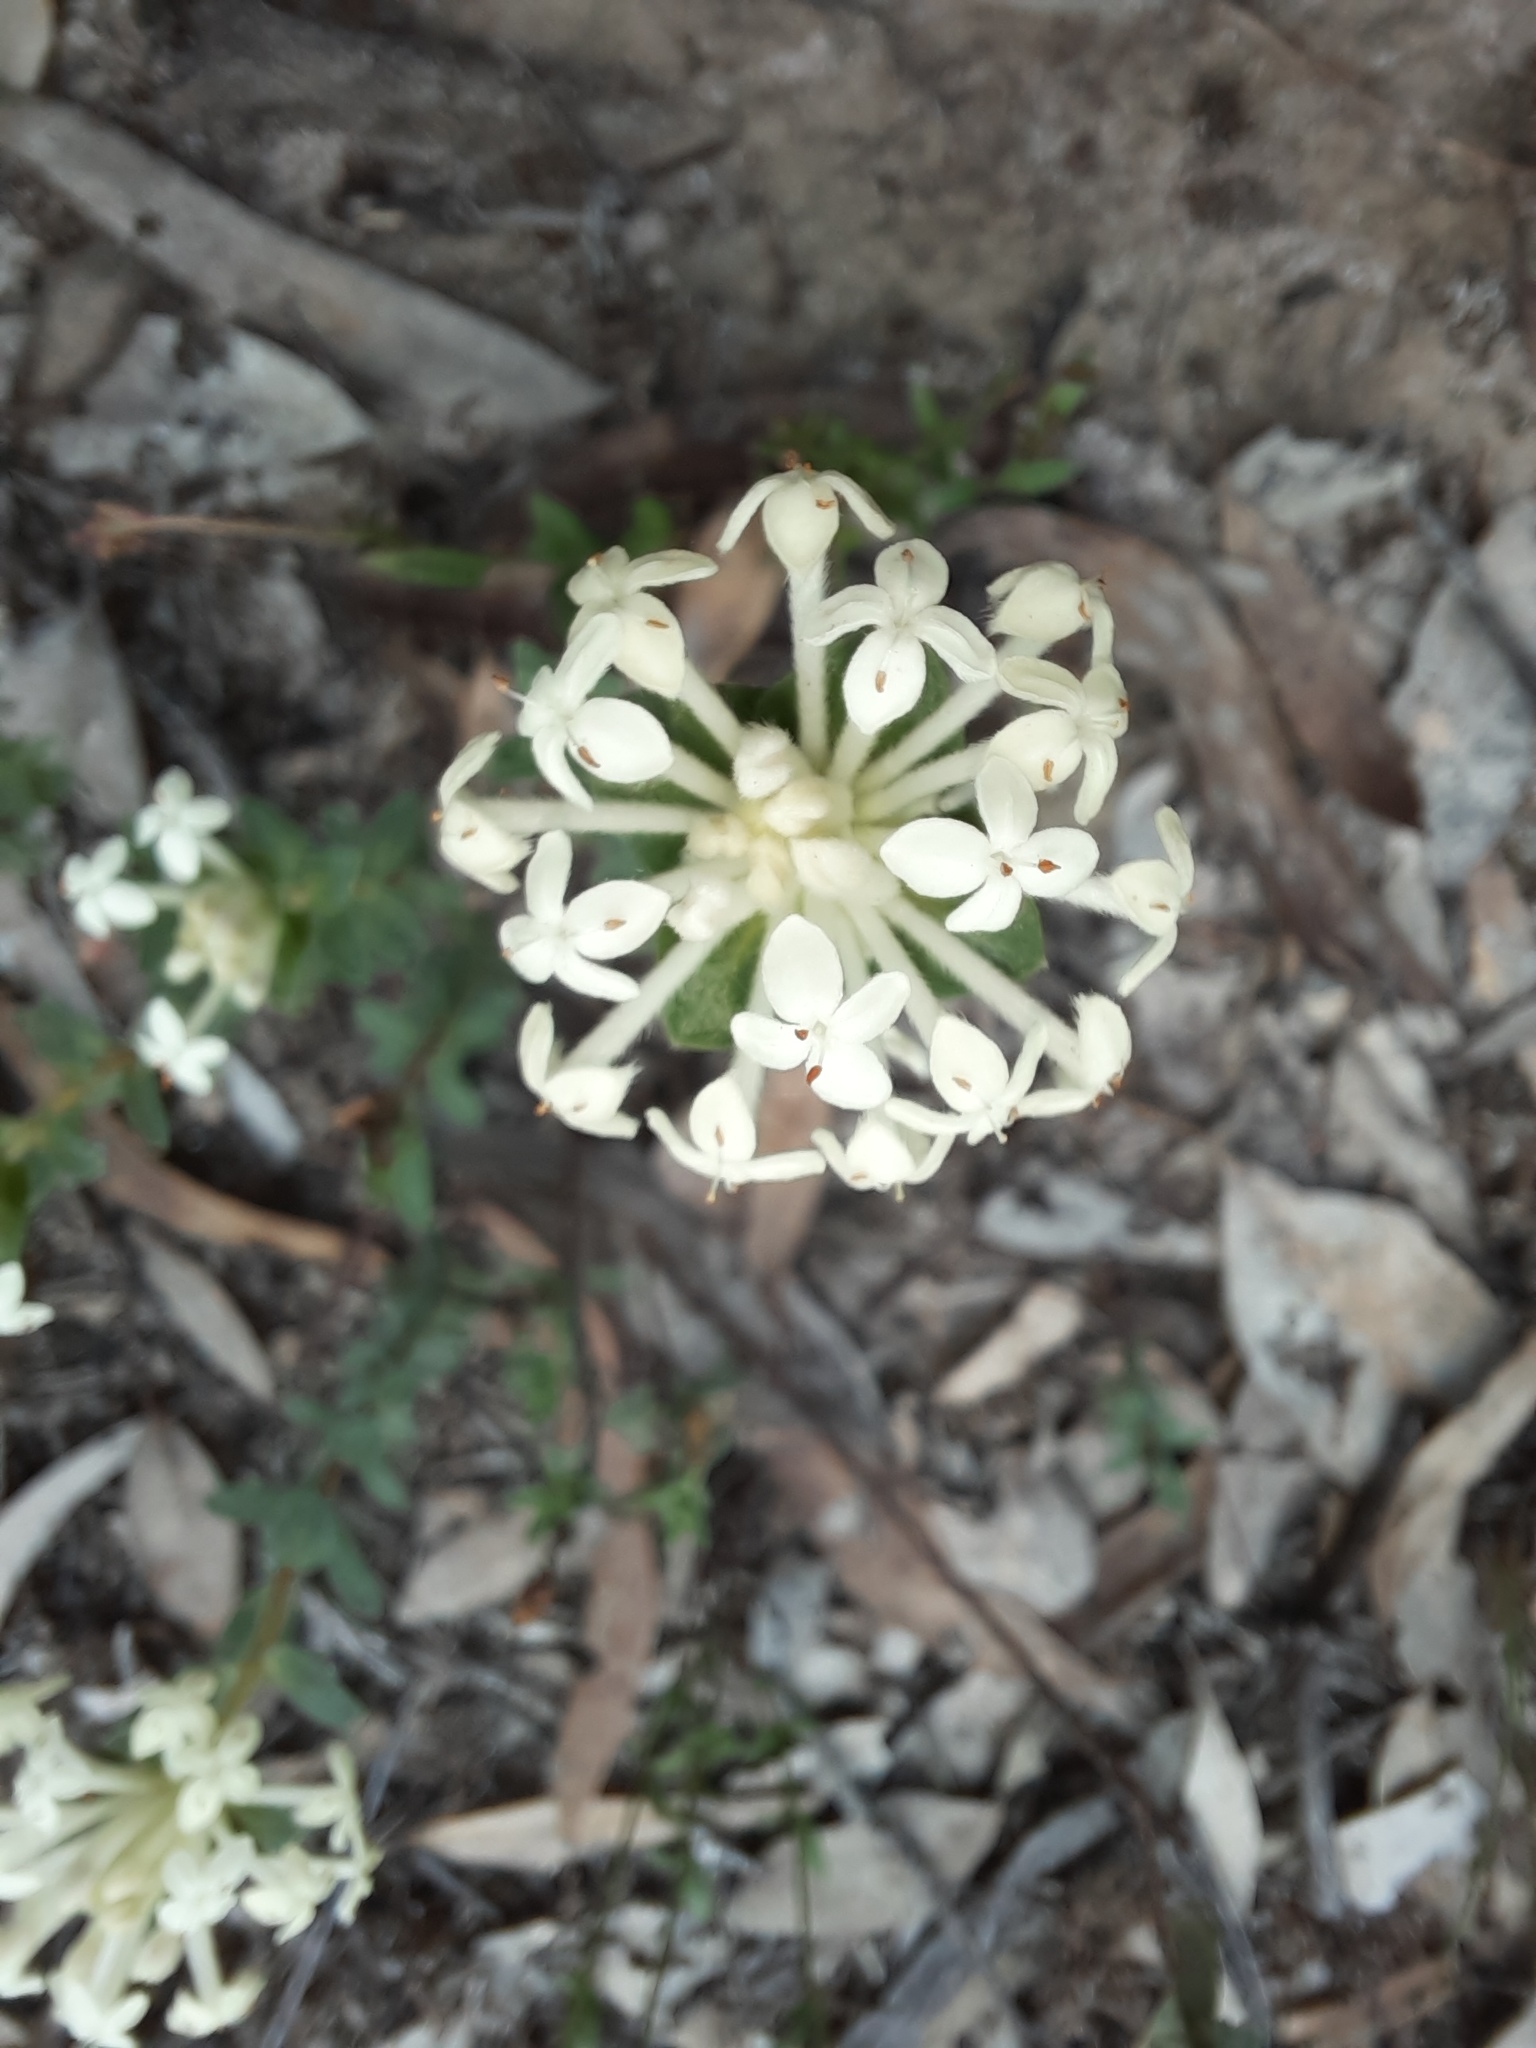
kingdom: Plantae
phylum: Tracheophyta
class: Magnoliopsida
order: Malvales
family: Thymelaeaceae
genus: Pimelea
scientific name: Pimelea humilis
